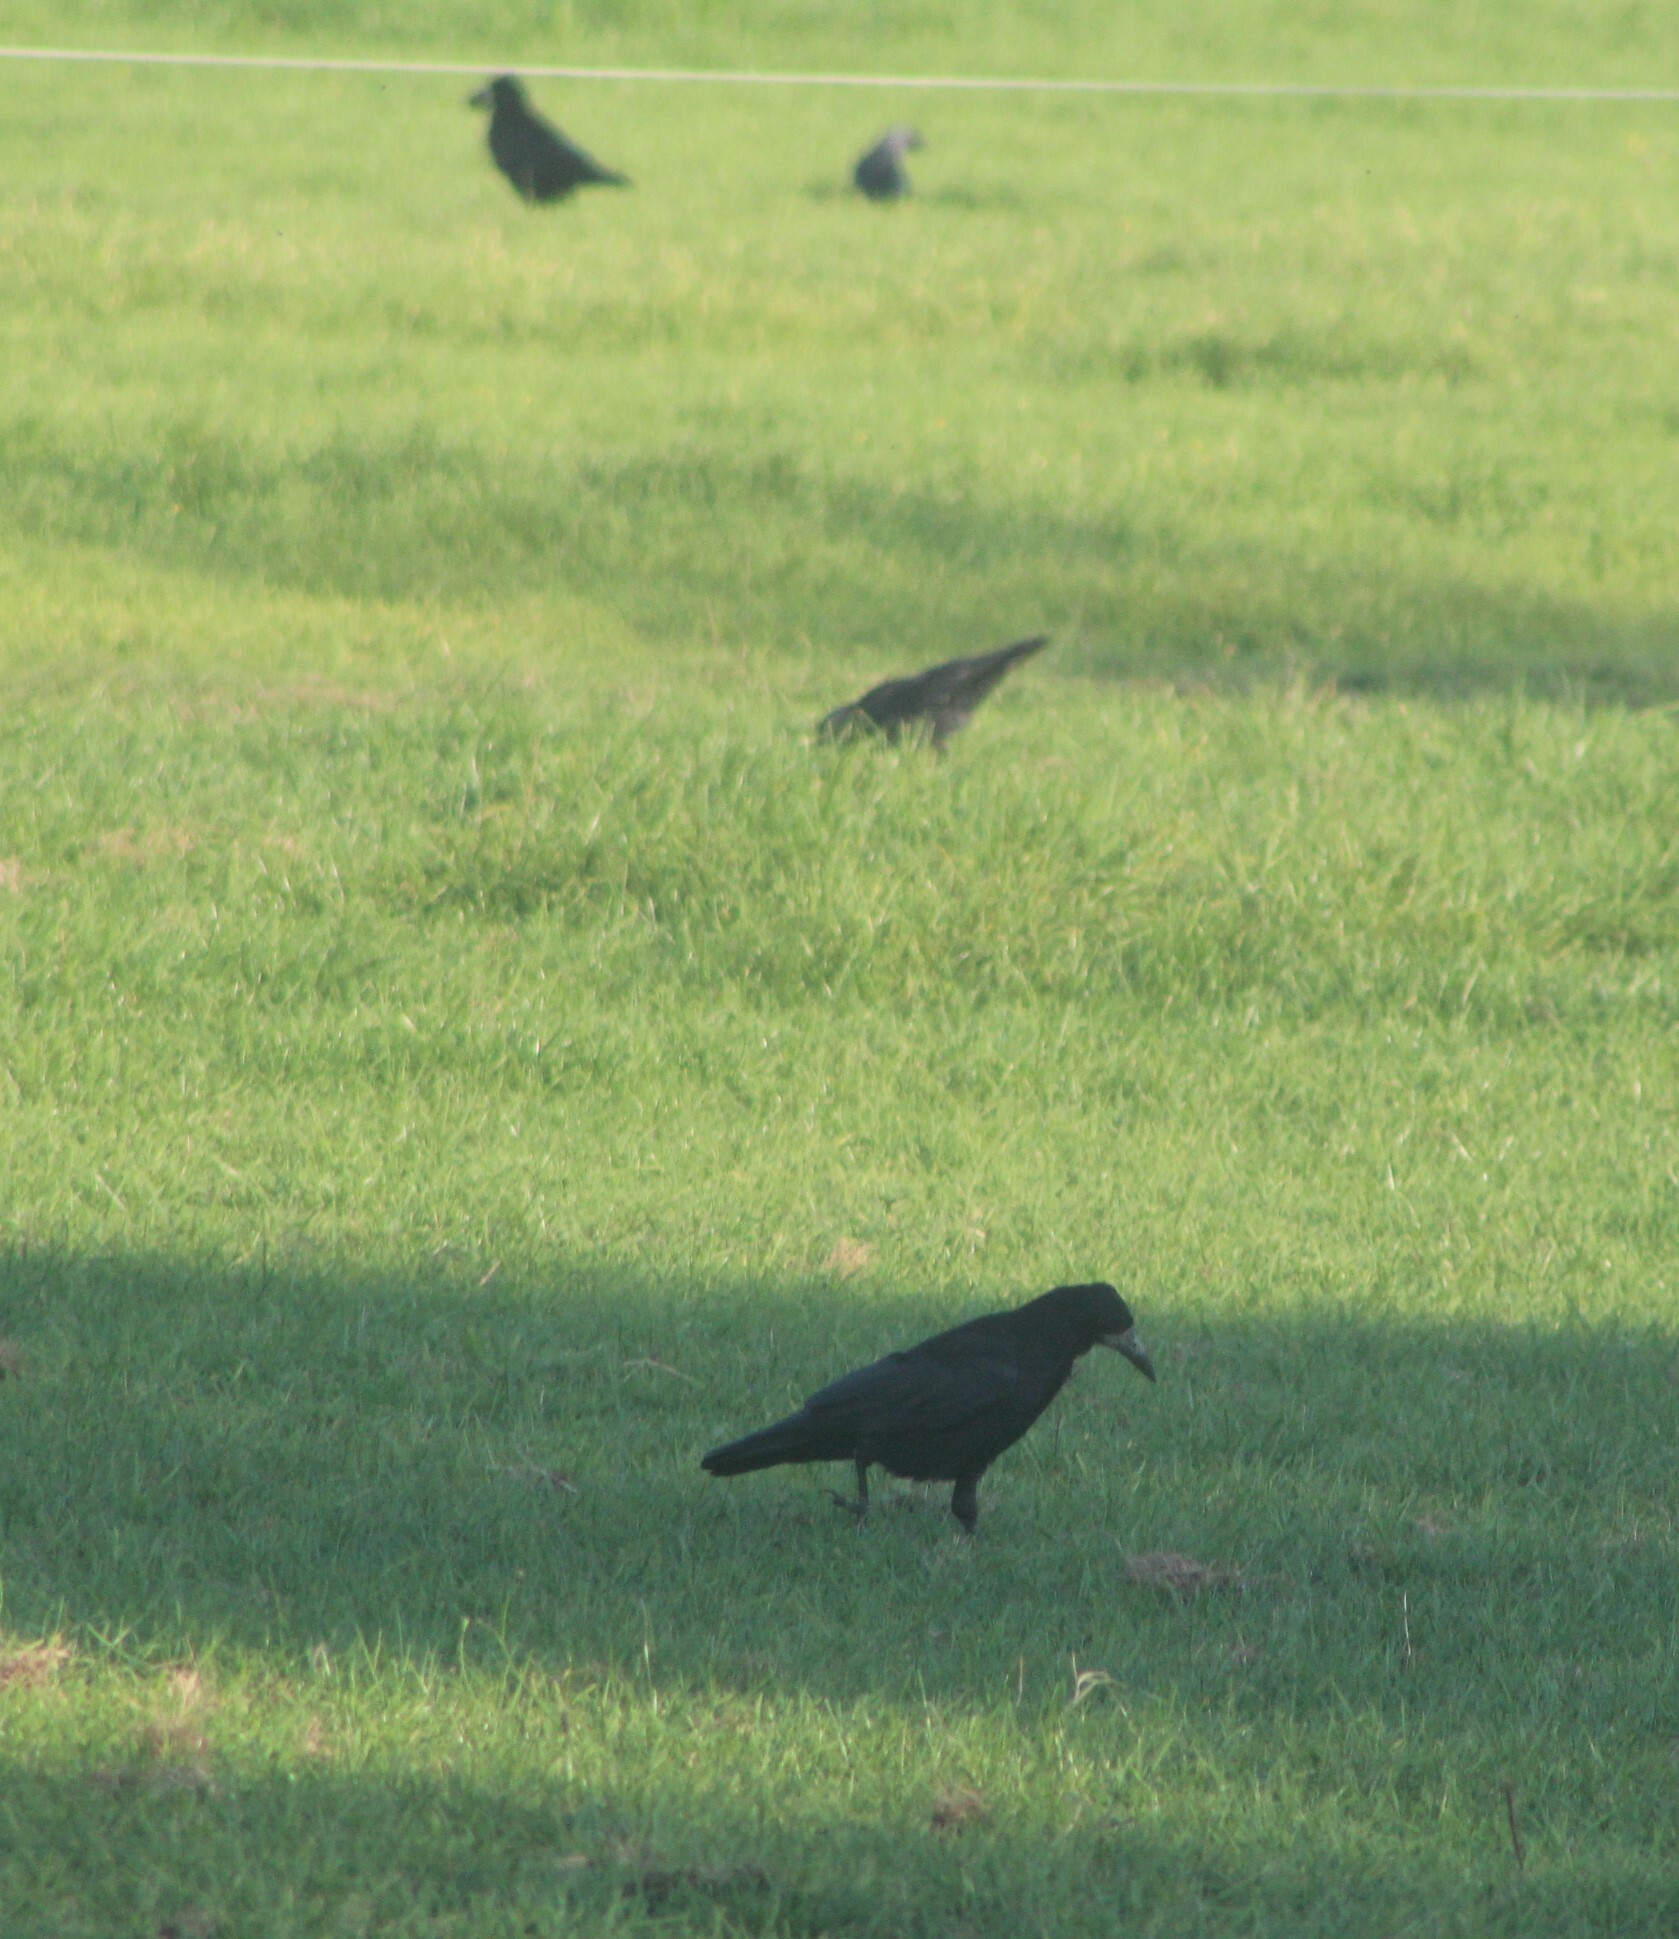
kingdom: Animalia
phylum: Chordata
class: Aves
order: Passeriformes
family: Corvidae
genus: Corvus
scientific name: Corvus frugilegus
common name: Rook
